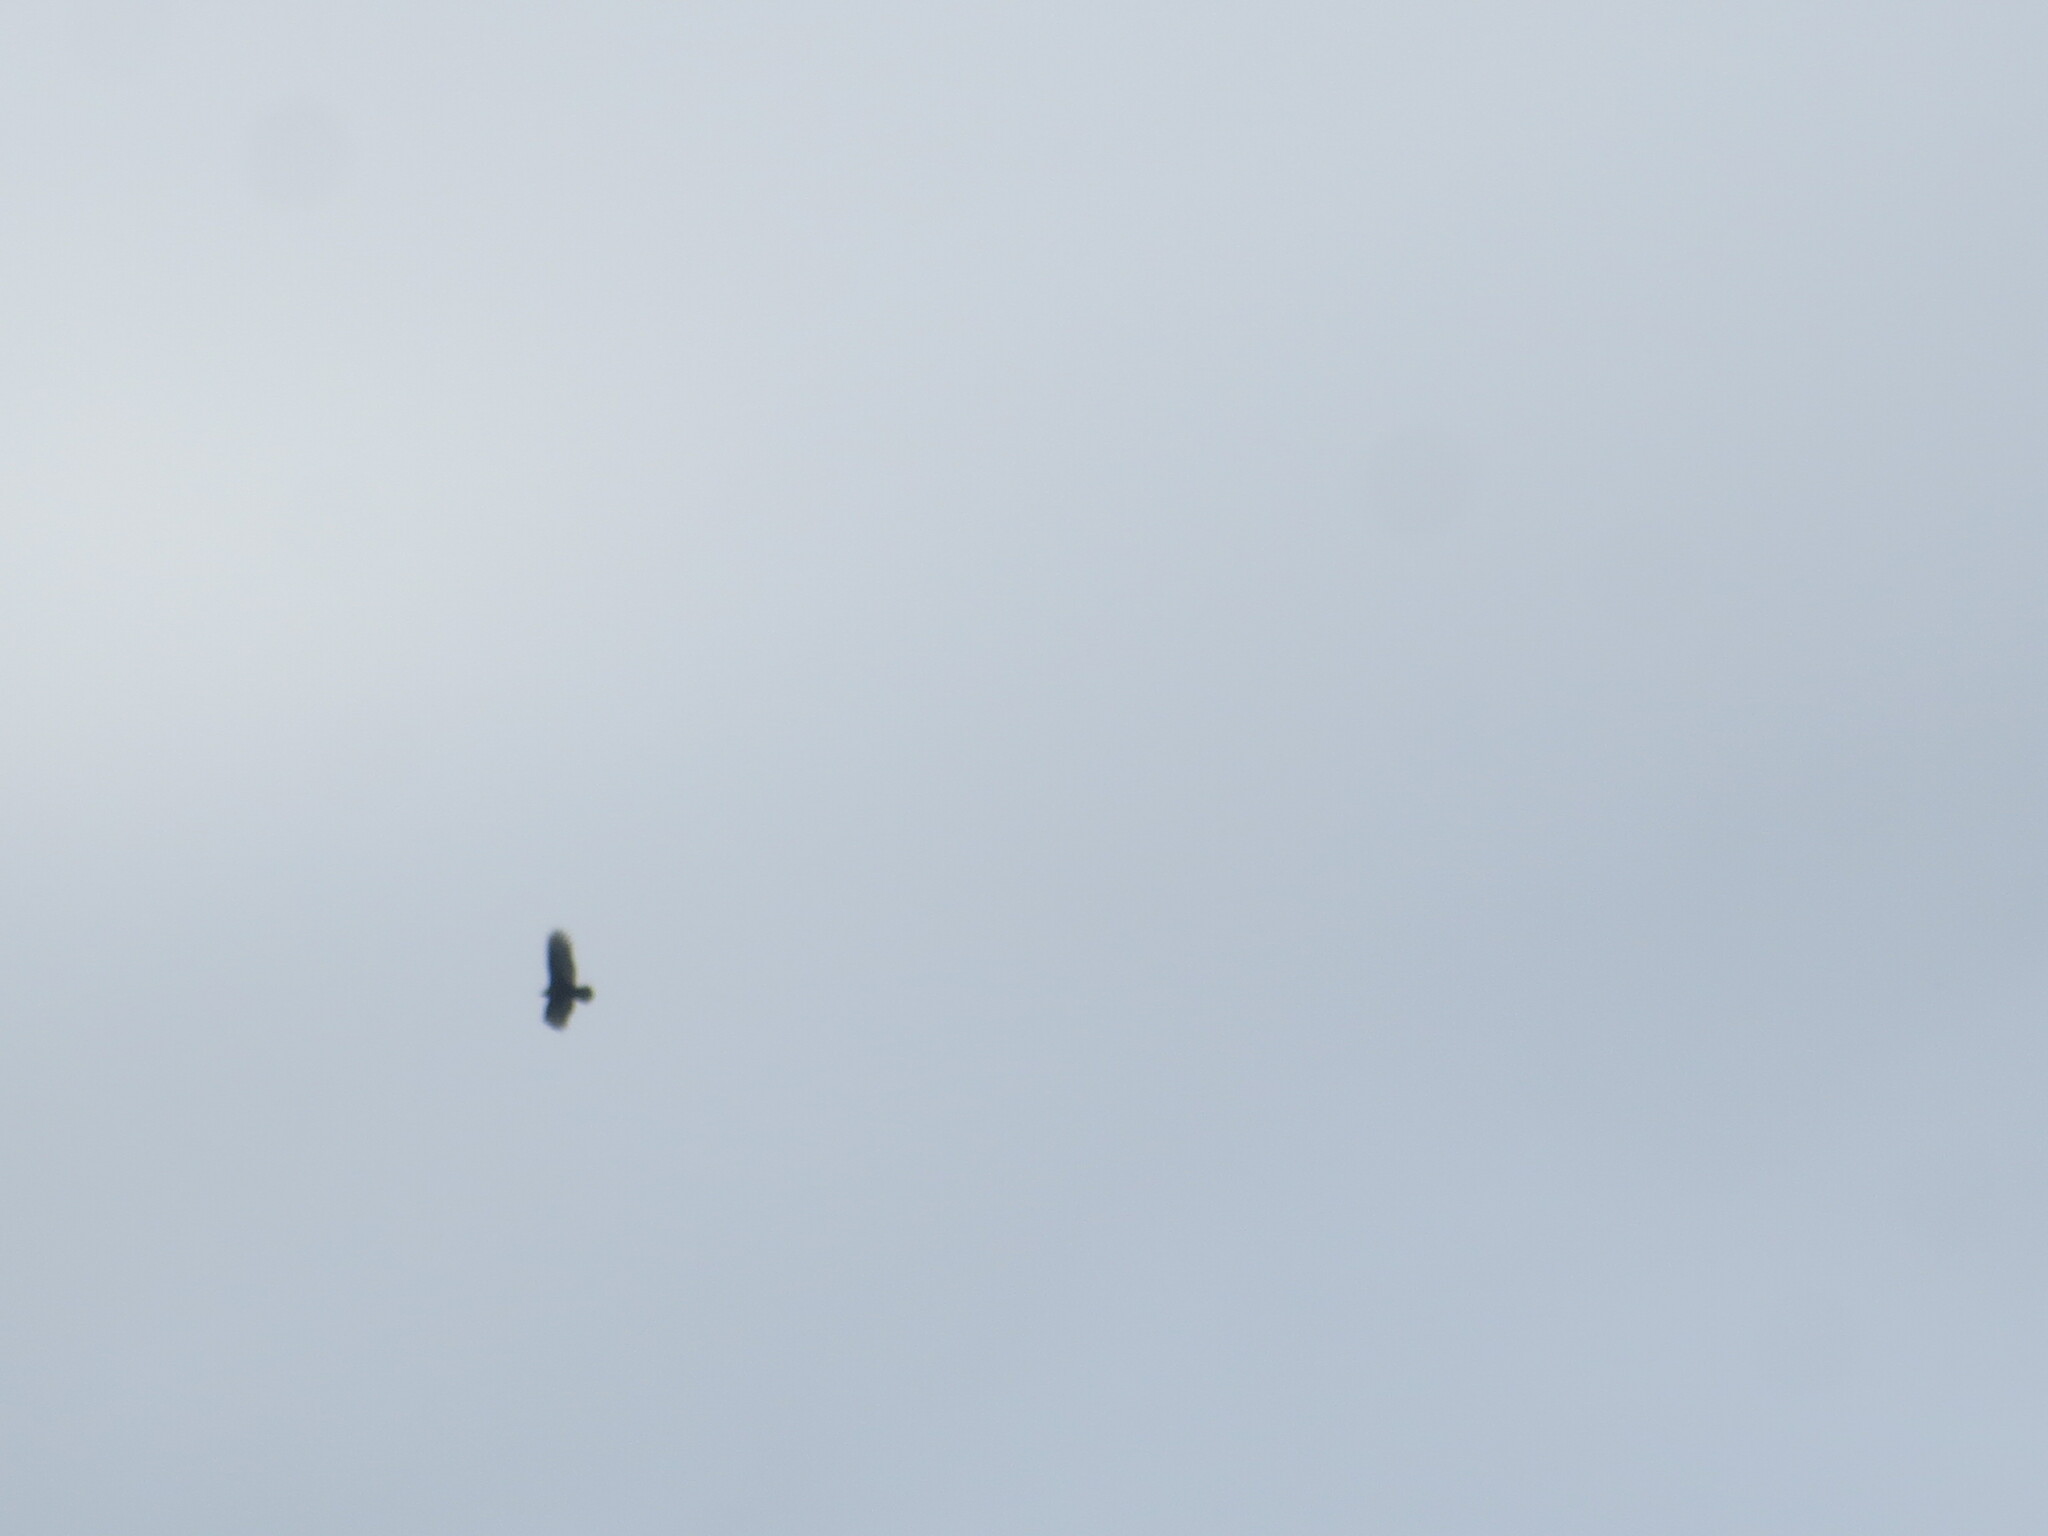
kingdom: Animalia
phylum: Chordata
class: Aves
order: Accipitriformes
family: Cathartidae
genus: Cathartes
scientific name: Cathartes aura
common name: Turkey vulture
